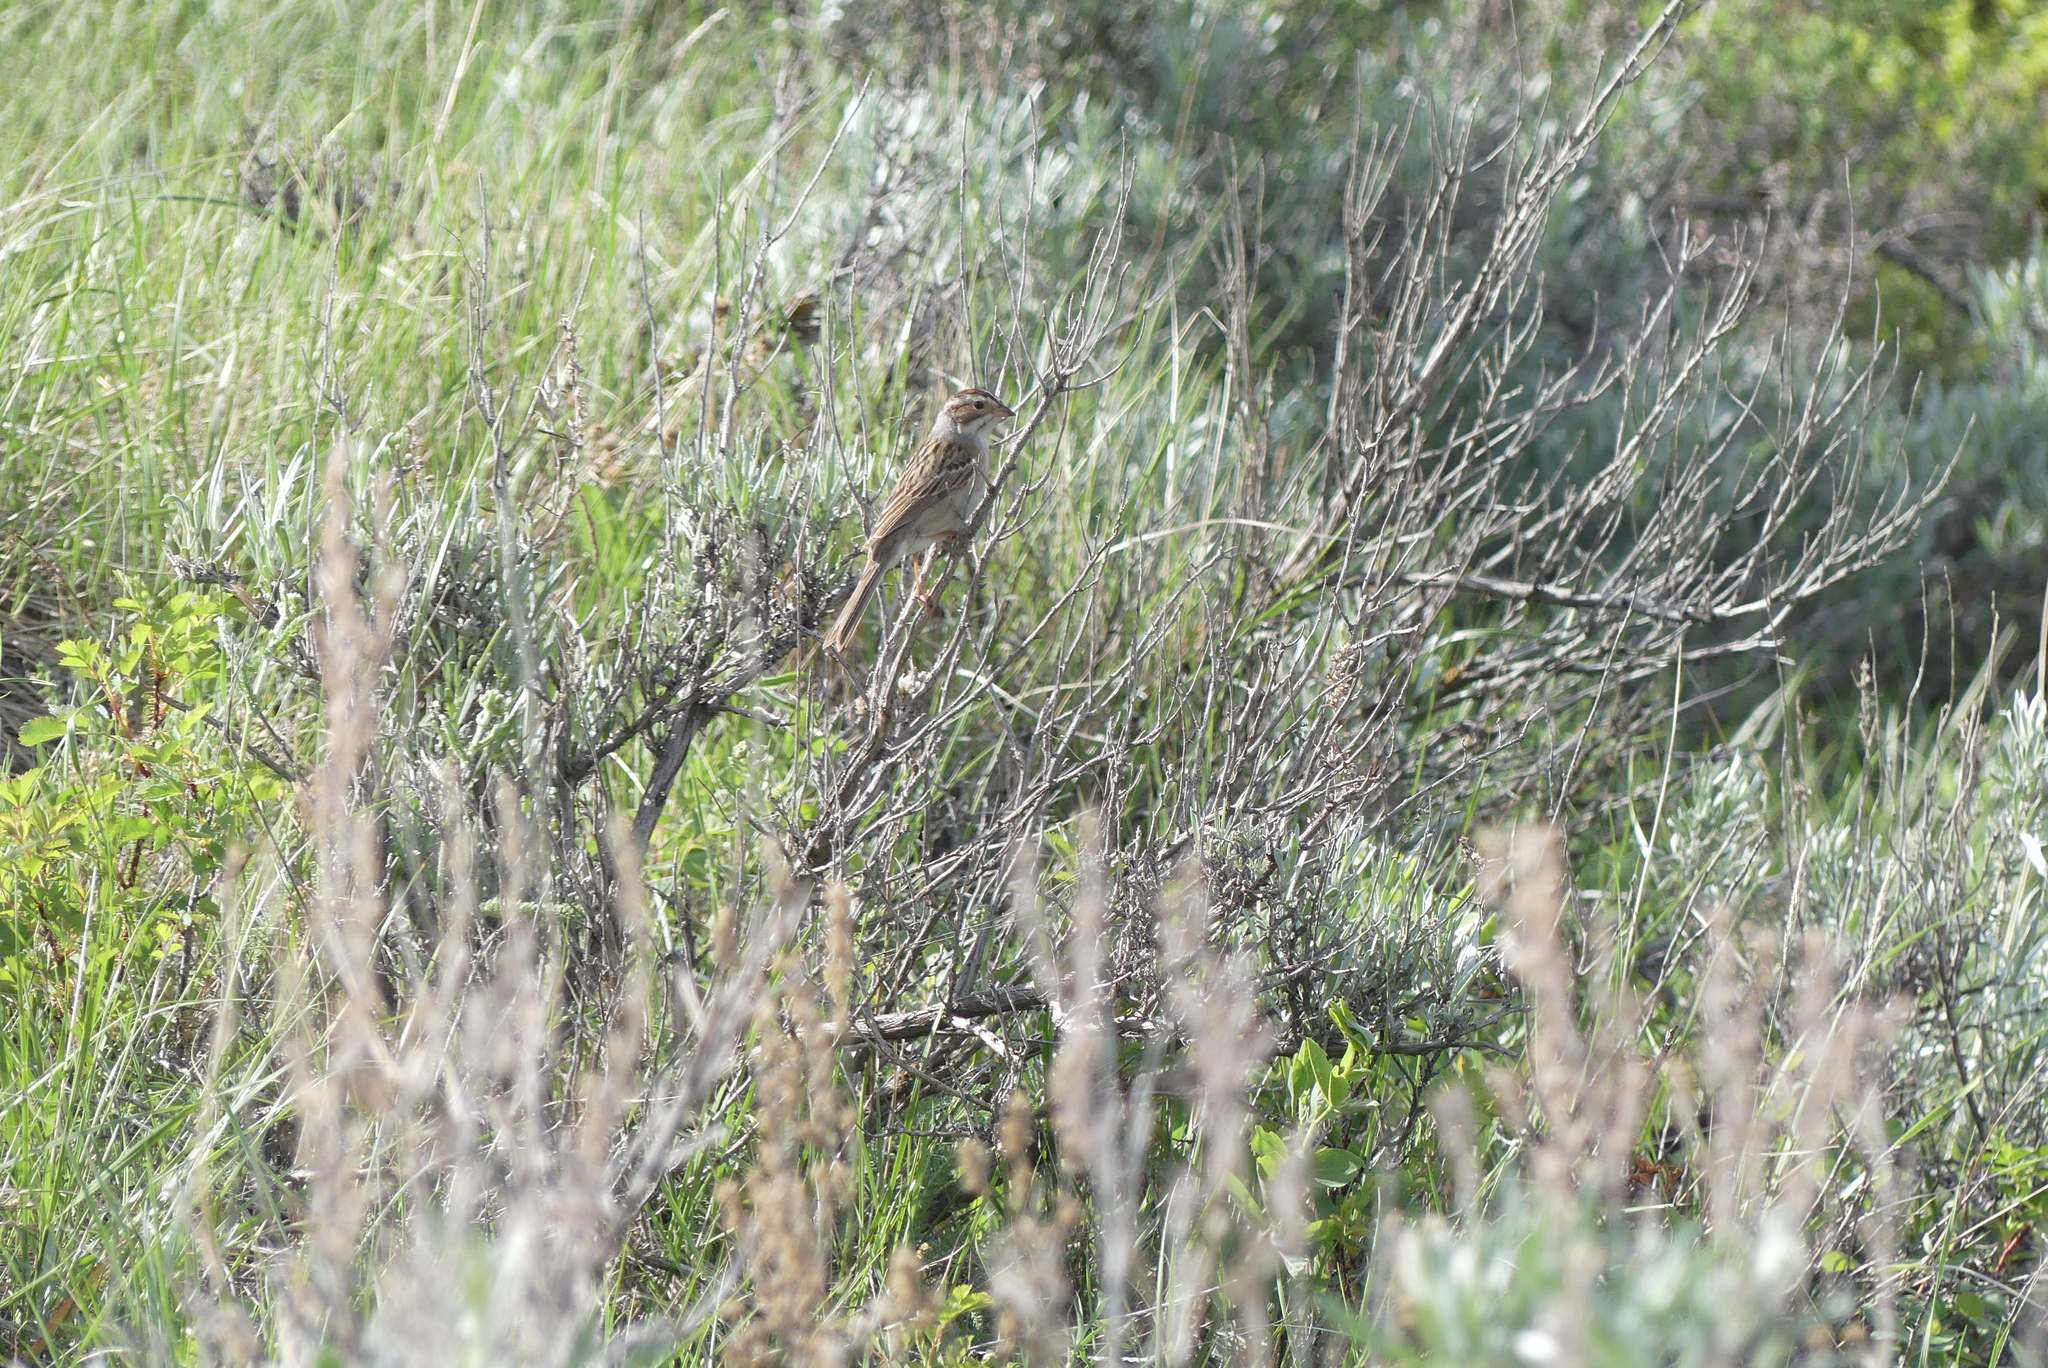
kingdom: Animalia
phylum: Chordata
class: Aves
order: Passeriformes
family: Passerellidae
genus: Spizella
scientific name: Spizella pallida
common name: Clay-colored sparrow
